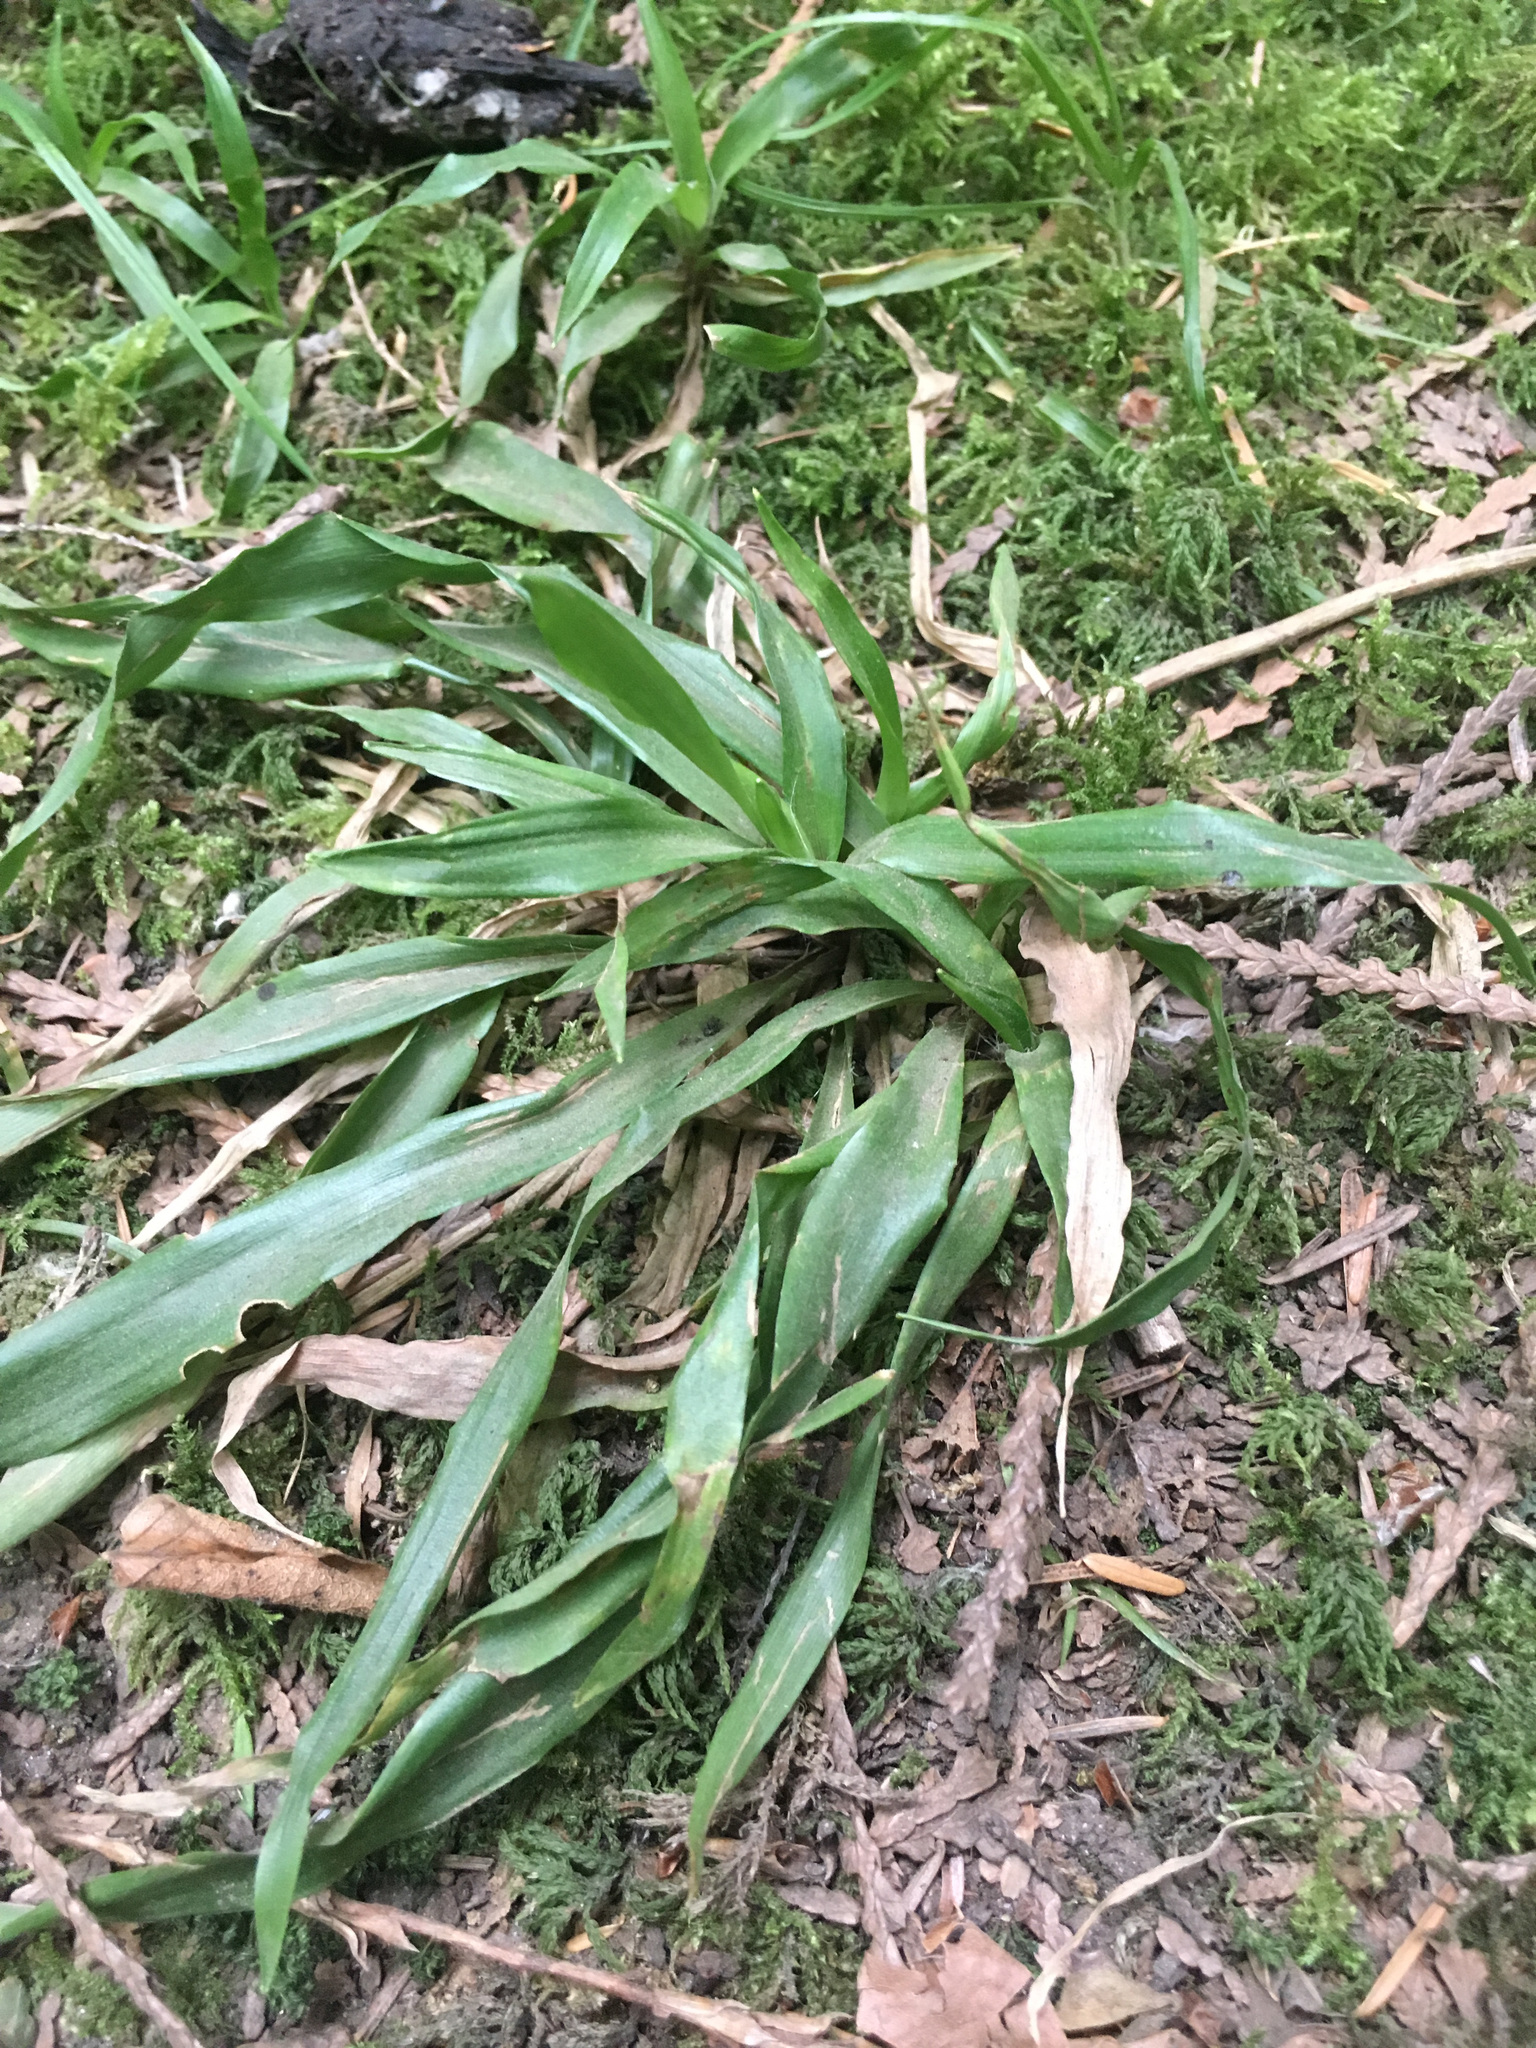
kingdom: Plantae
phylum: Tracheophyta
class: Liliopsida
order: Poales
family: Juncaceae
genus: Luzula
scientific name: Luzula parviflora
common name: Millet woodrush
